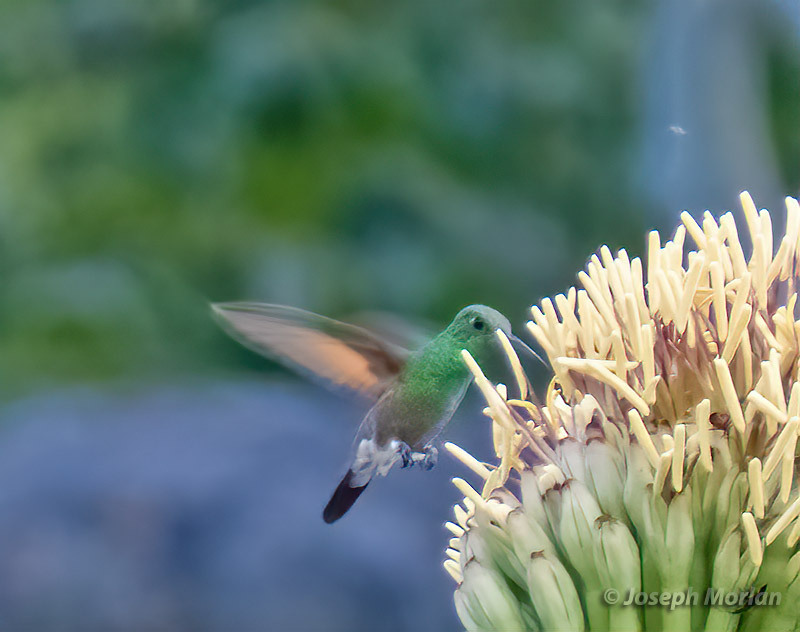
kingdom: Animalia
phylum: Chordata
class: Aves
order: Apodiformes
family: Trochilidae
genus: Saucerottia
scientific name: Saucerottia beryllina
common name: Berylline hummingbird
